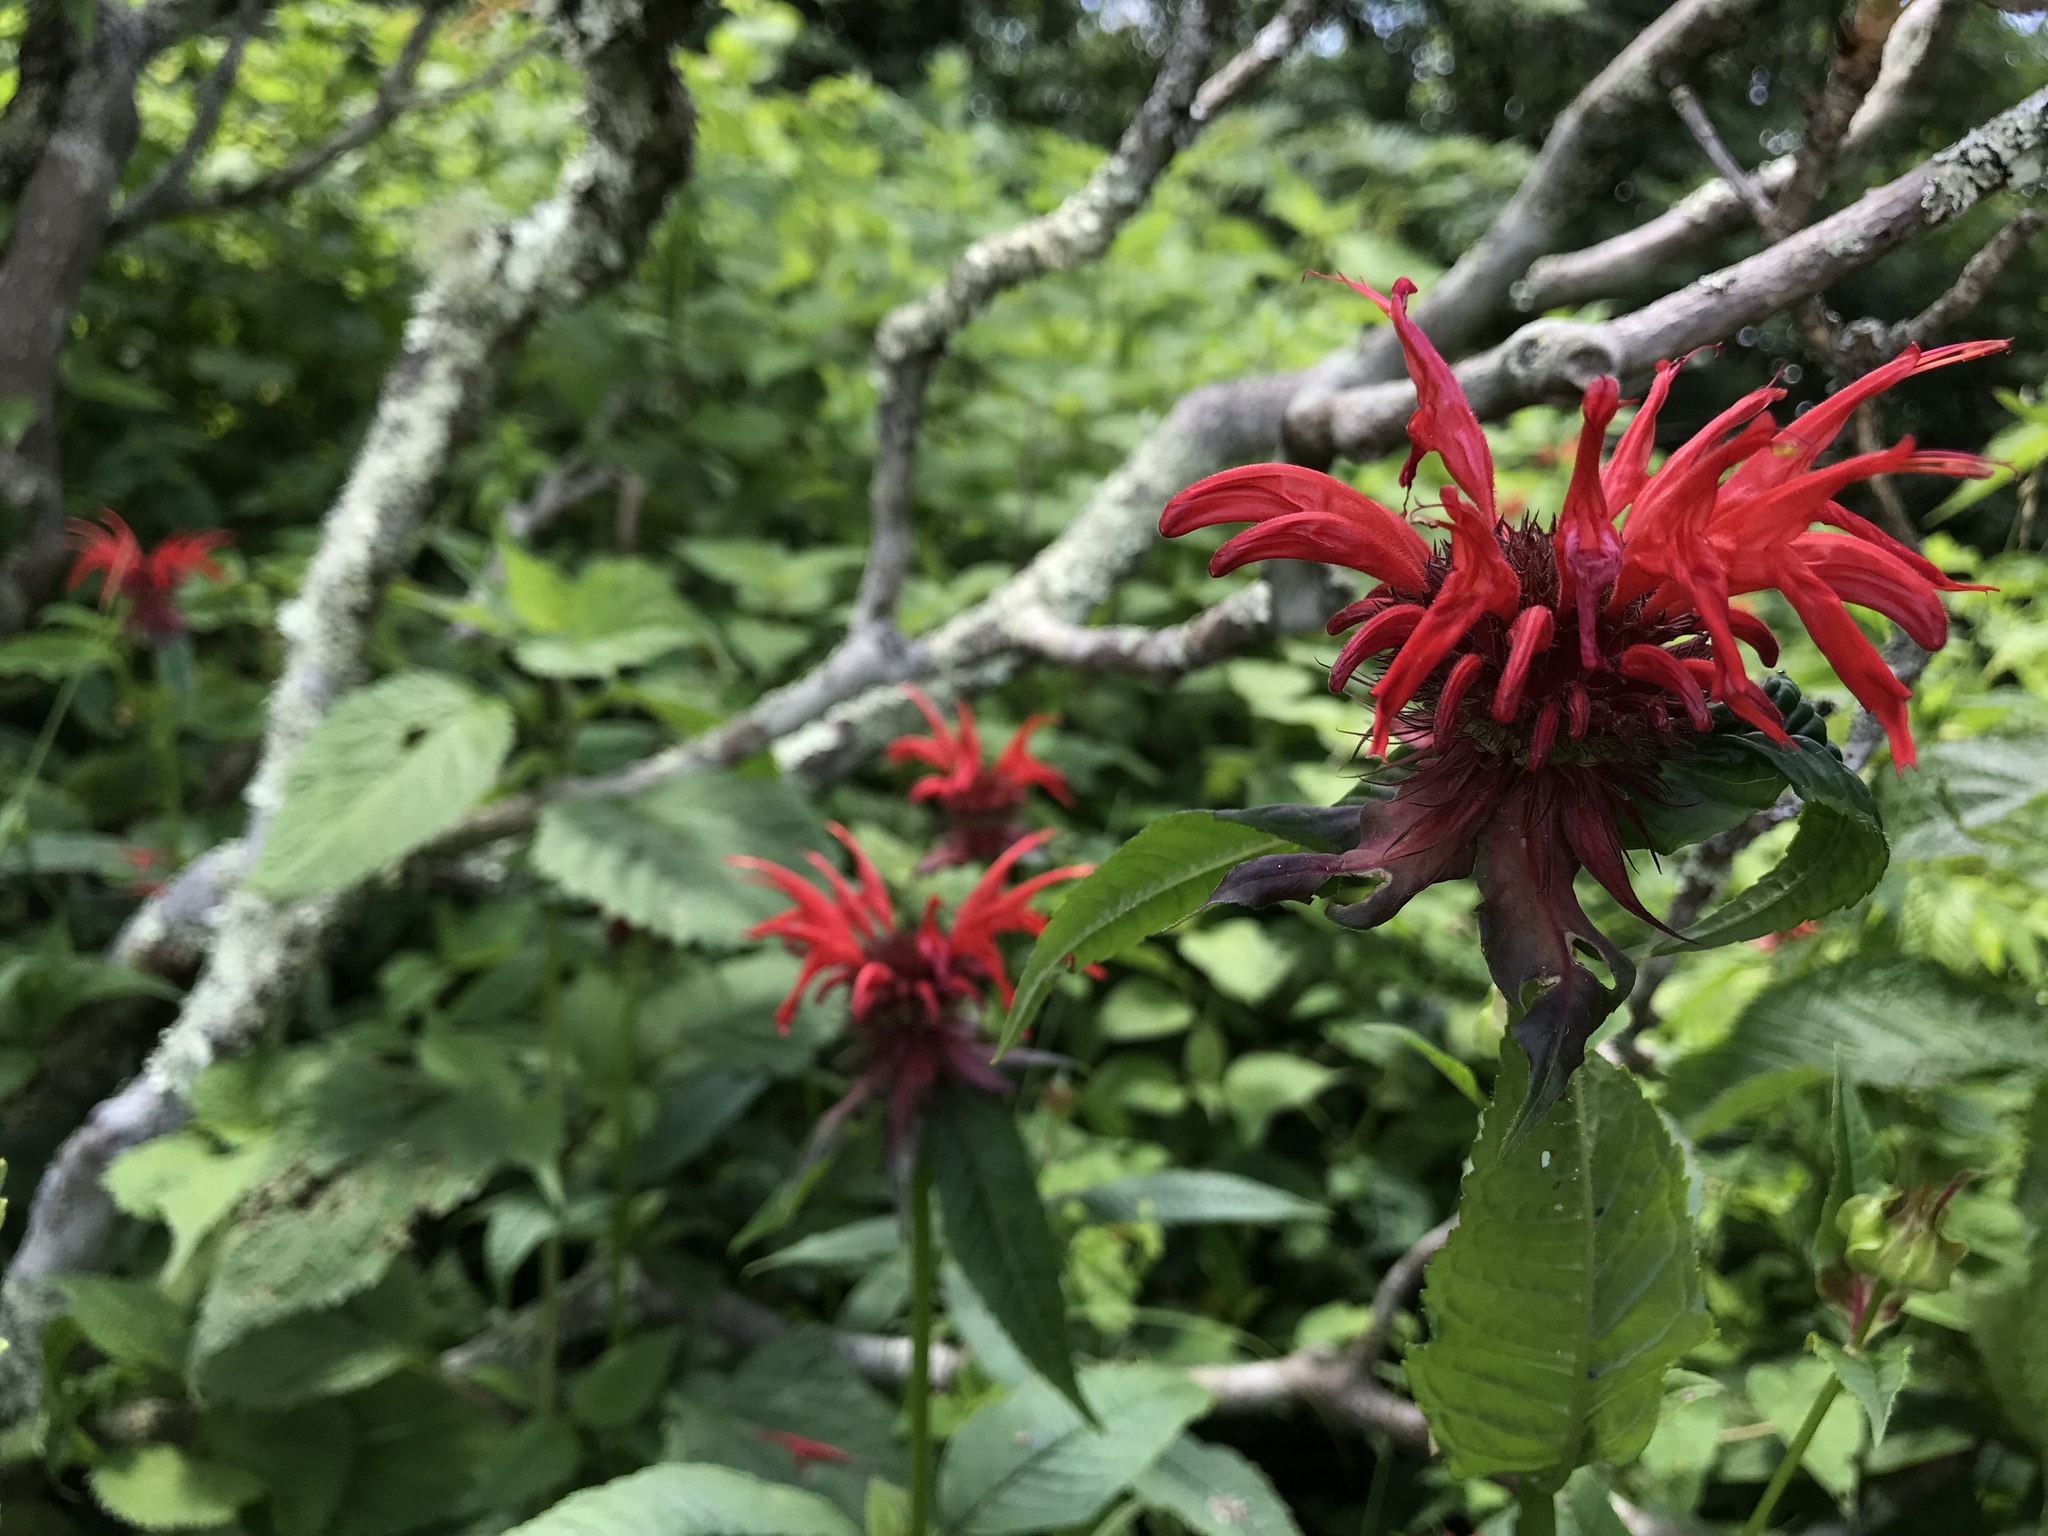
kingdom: Plantae
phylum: Tracheophyta
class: Magnoliopsida
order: Lamiales
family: Lamiaceae
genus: Monarda
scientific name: Monarda didyma
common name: Beebalm
